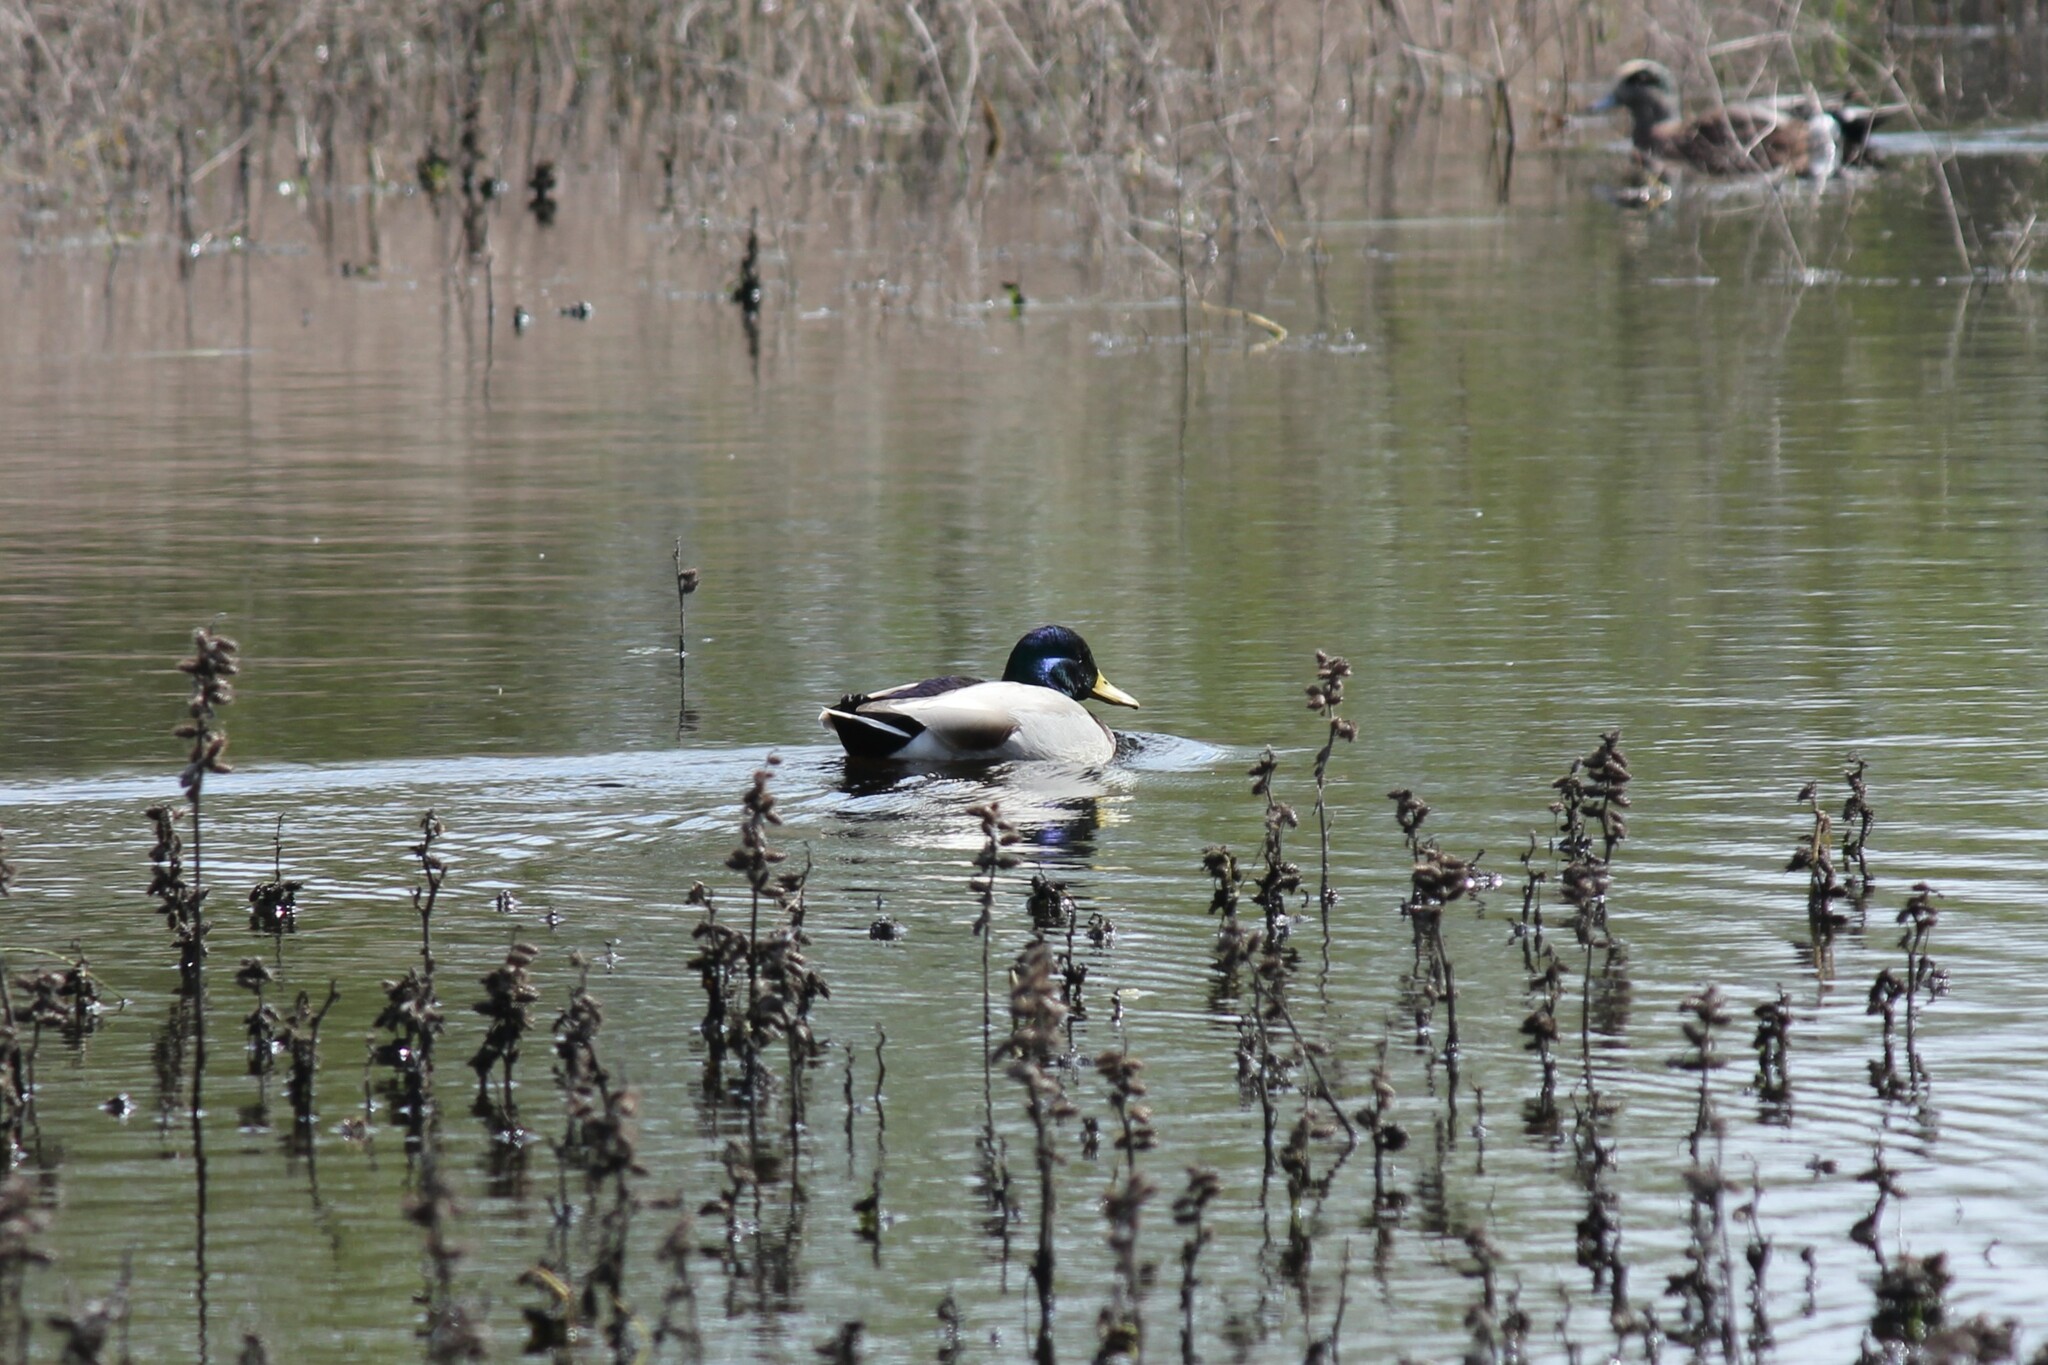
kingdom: Animalia
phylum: Chordata
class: Aves
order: Anseriformes
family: Anatidae
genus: Anas
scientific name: Anas platyrhynchos
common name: Mallard
